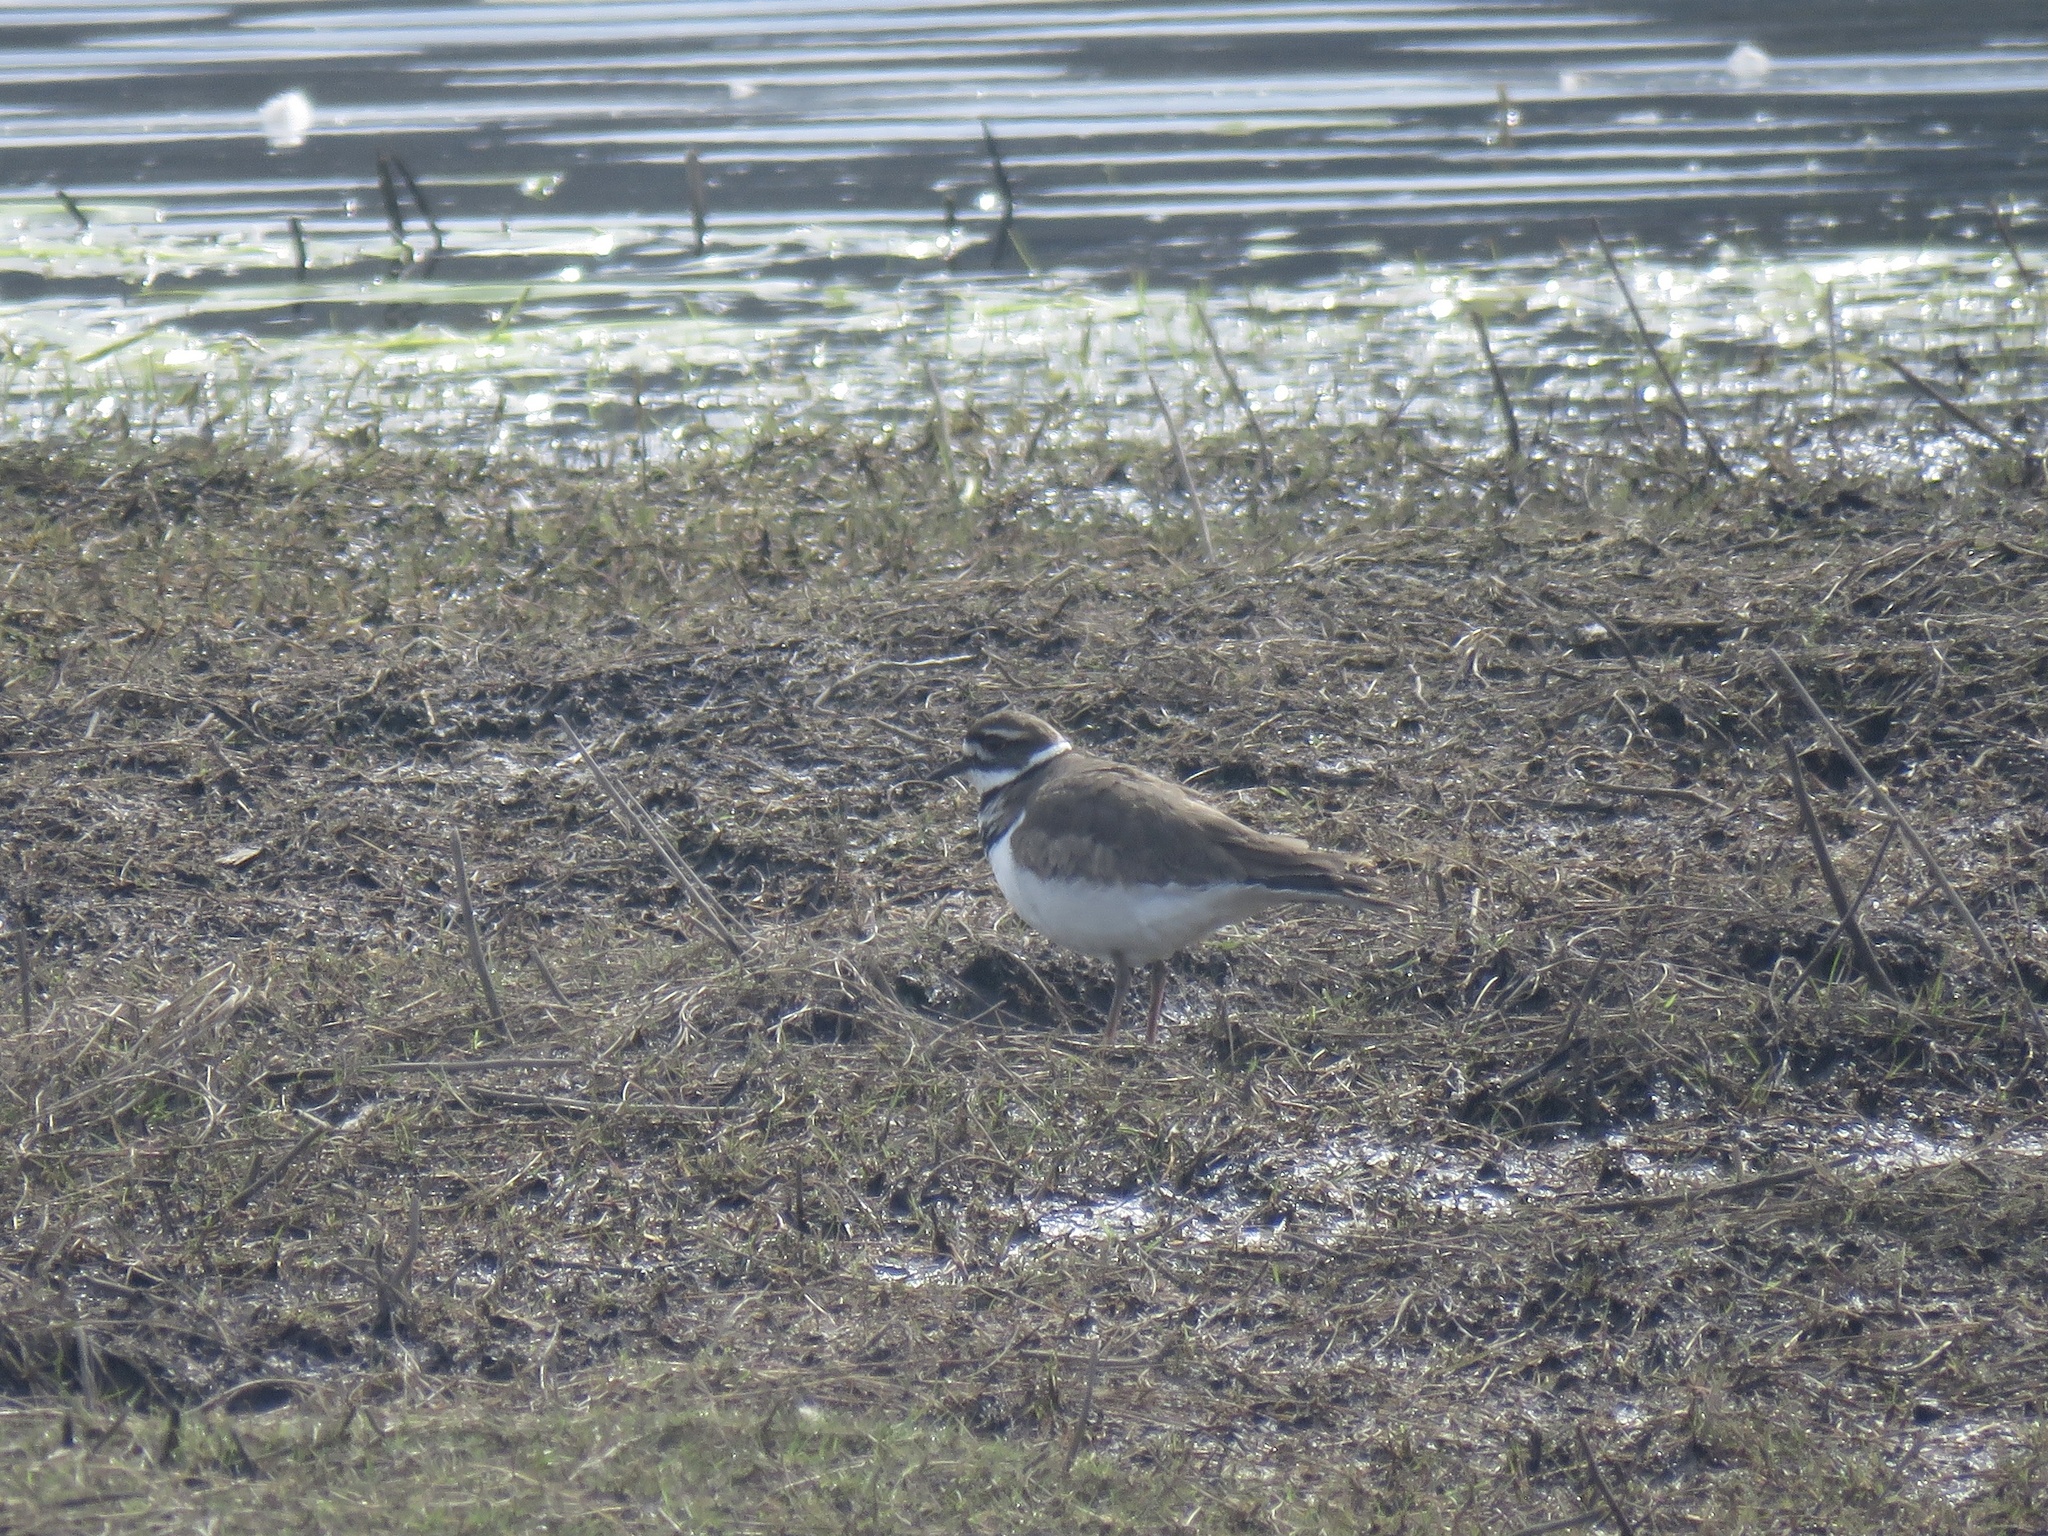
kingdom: Animalia
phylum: Chordata
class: Aves
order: Charadriiformes
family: Charadriidae
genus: Charadrius
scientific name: Charadrius vociferus
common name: Killdeer
